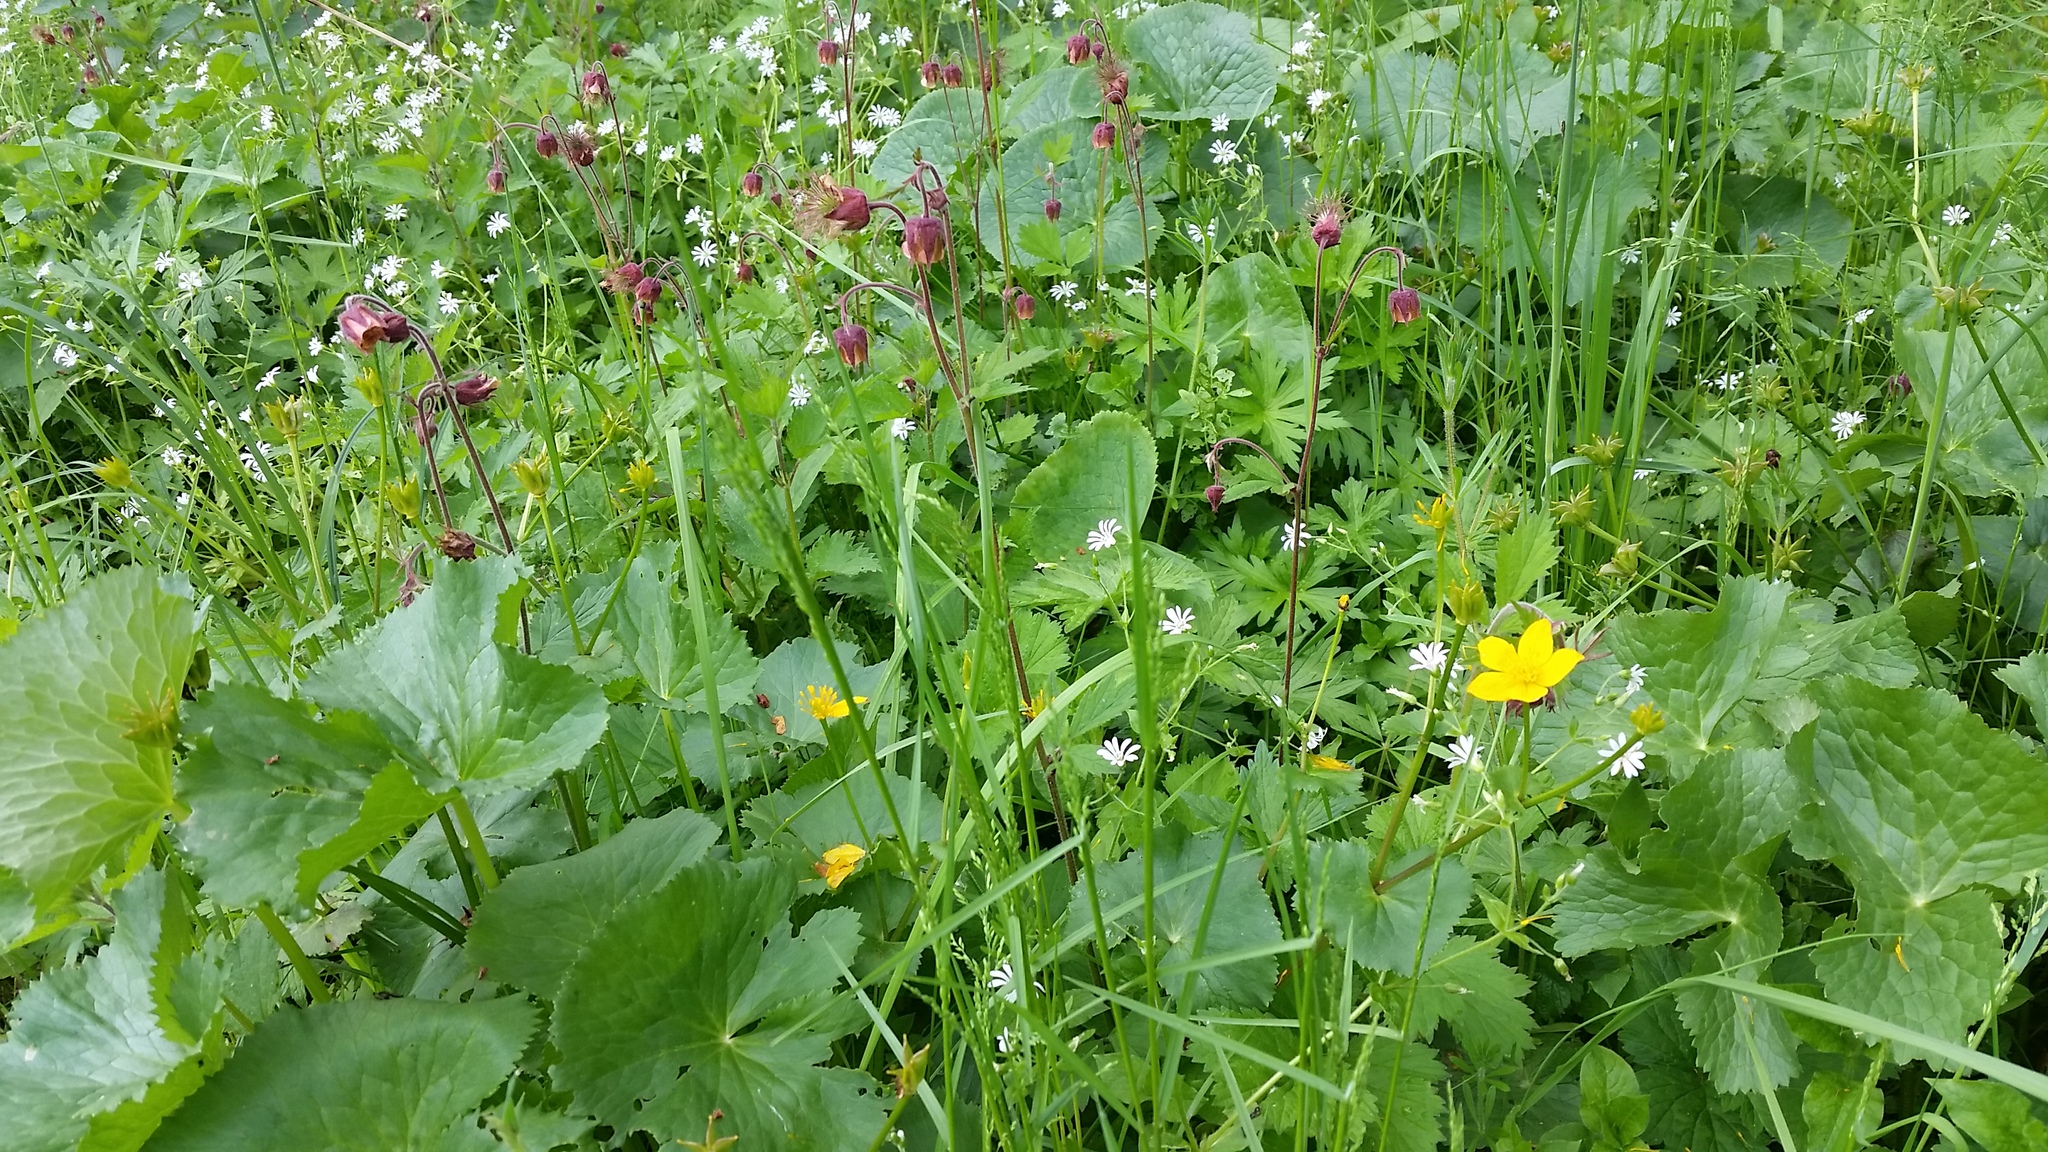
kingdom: Plantae
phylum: Tracheophyta
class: Magnoliopsida
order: Rosales
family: Rosaceae
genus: Geum
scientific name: Geum rivale
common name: Water avens
